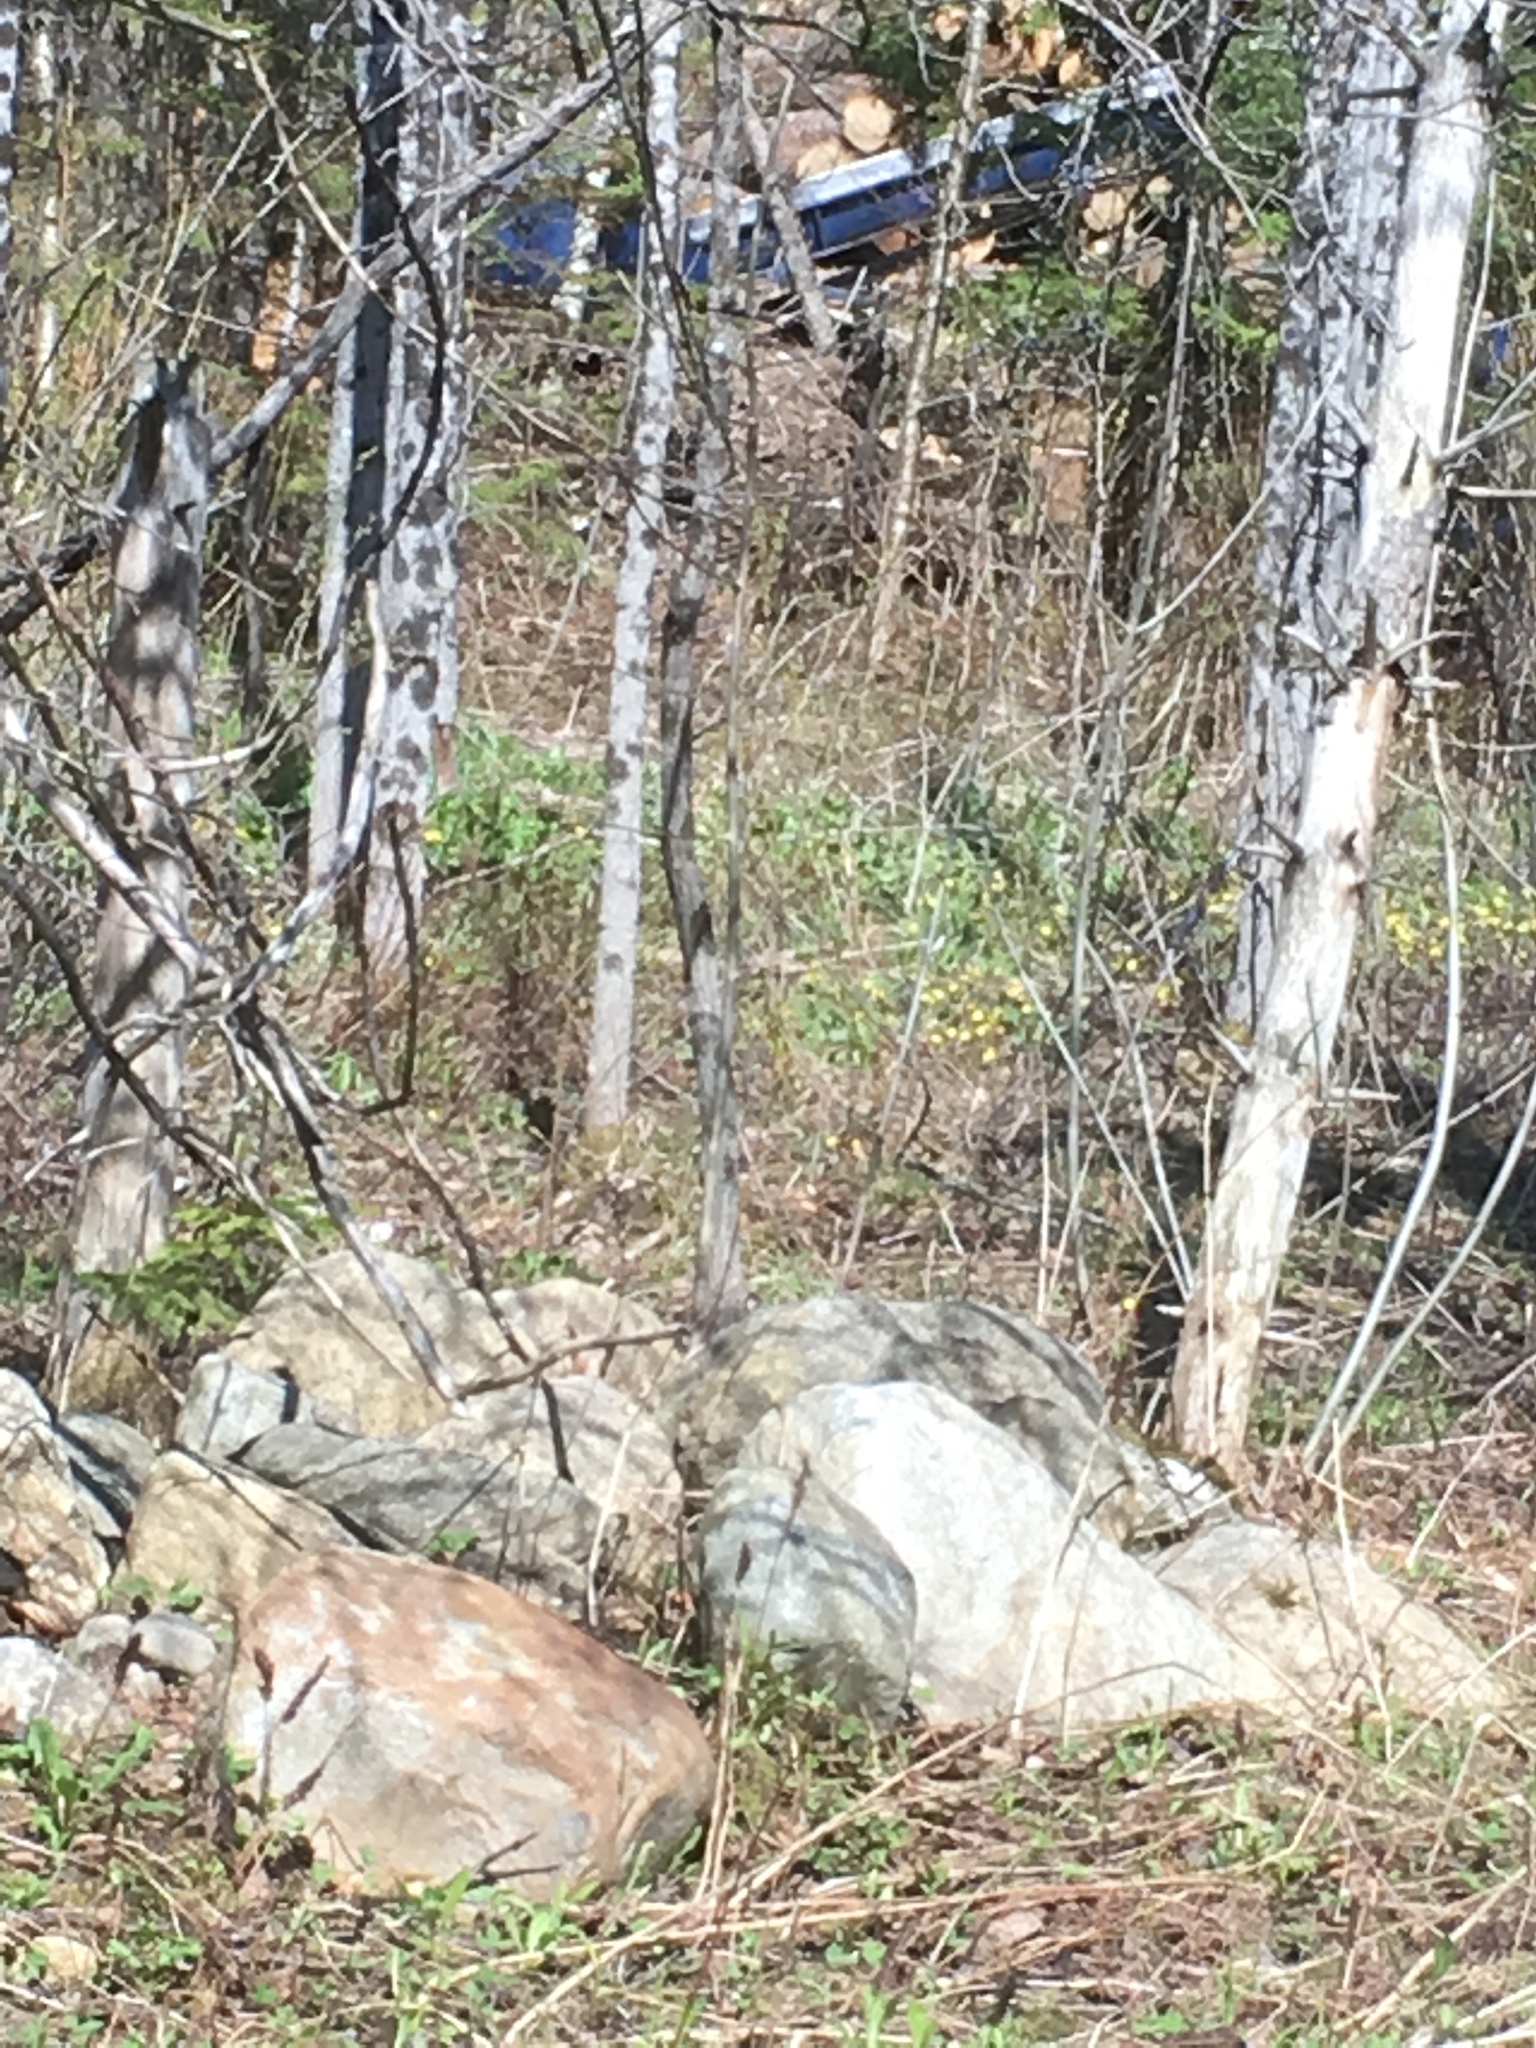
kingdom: Plantae
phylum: Tracheophyta
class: Magnoliopsida
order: Asterales
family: Asteraceae
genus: Tussilago
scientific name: Tussilago farfara
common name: Coltsfoot
